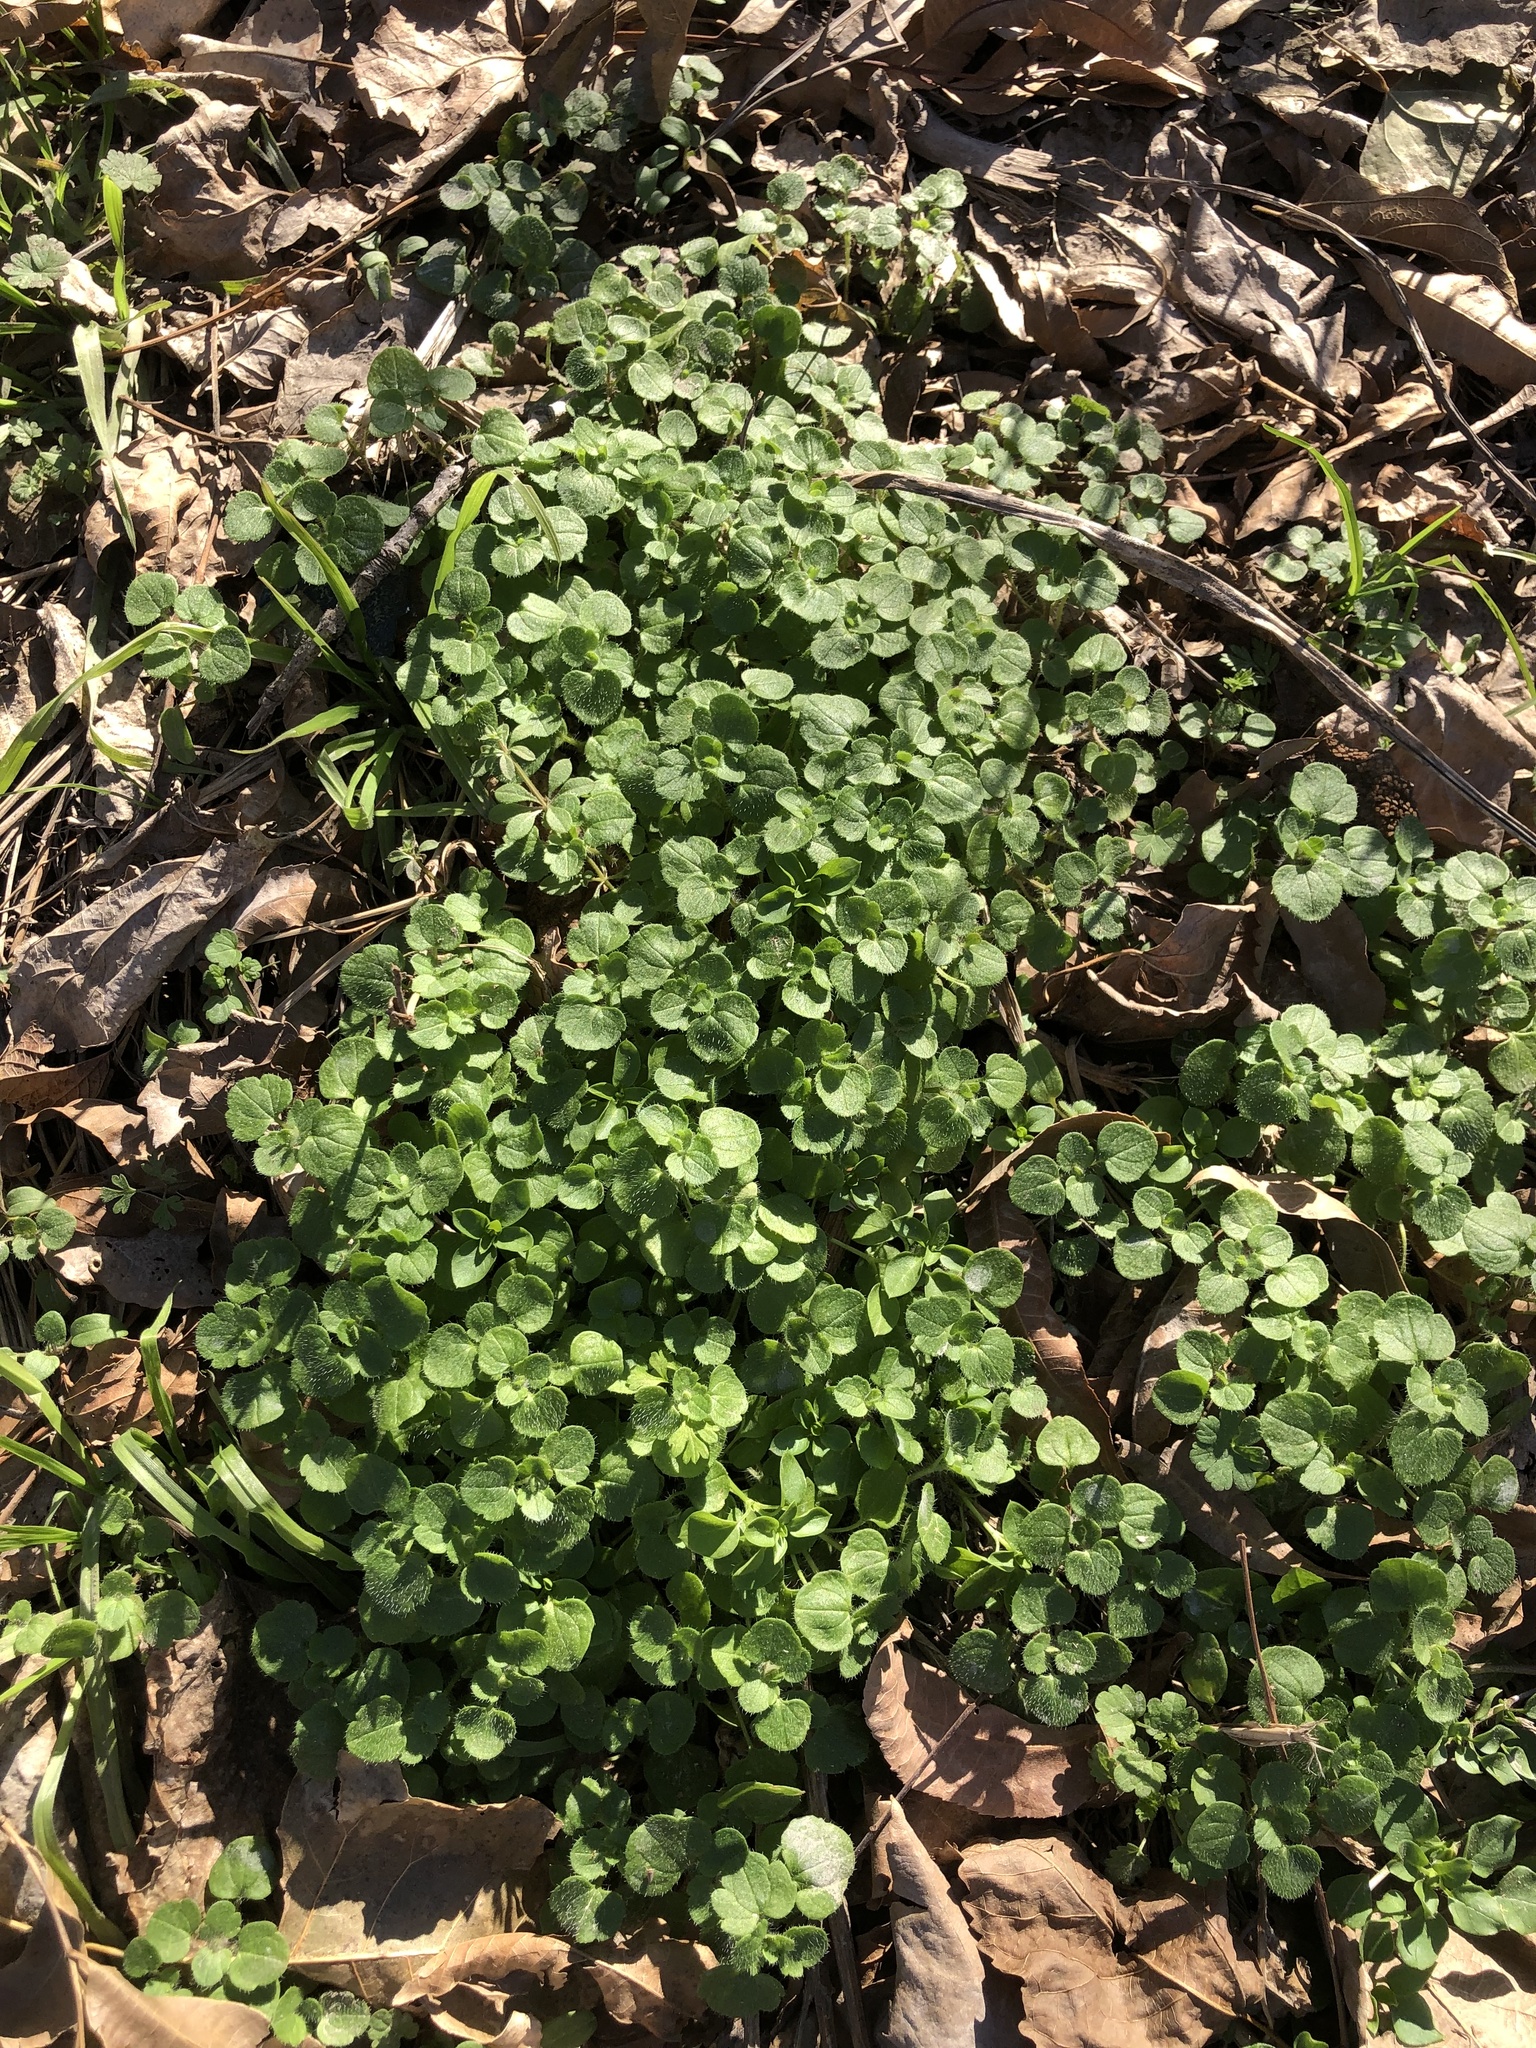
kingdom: Plantae
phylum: Tracheophyta
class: Magnoliopsida
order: Lamiales
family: Plantaginaceae
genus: Veronica
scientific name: Veronica hederifolia
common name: Ivy-leaved speedwell
